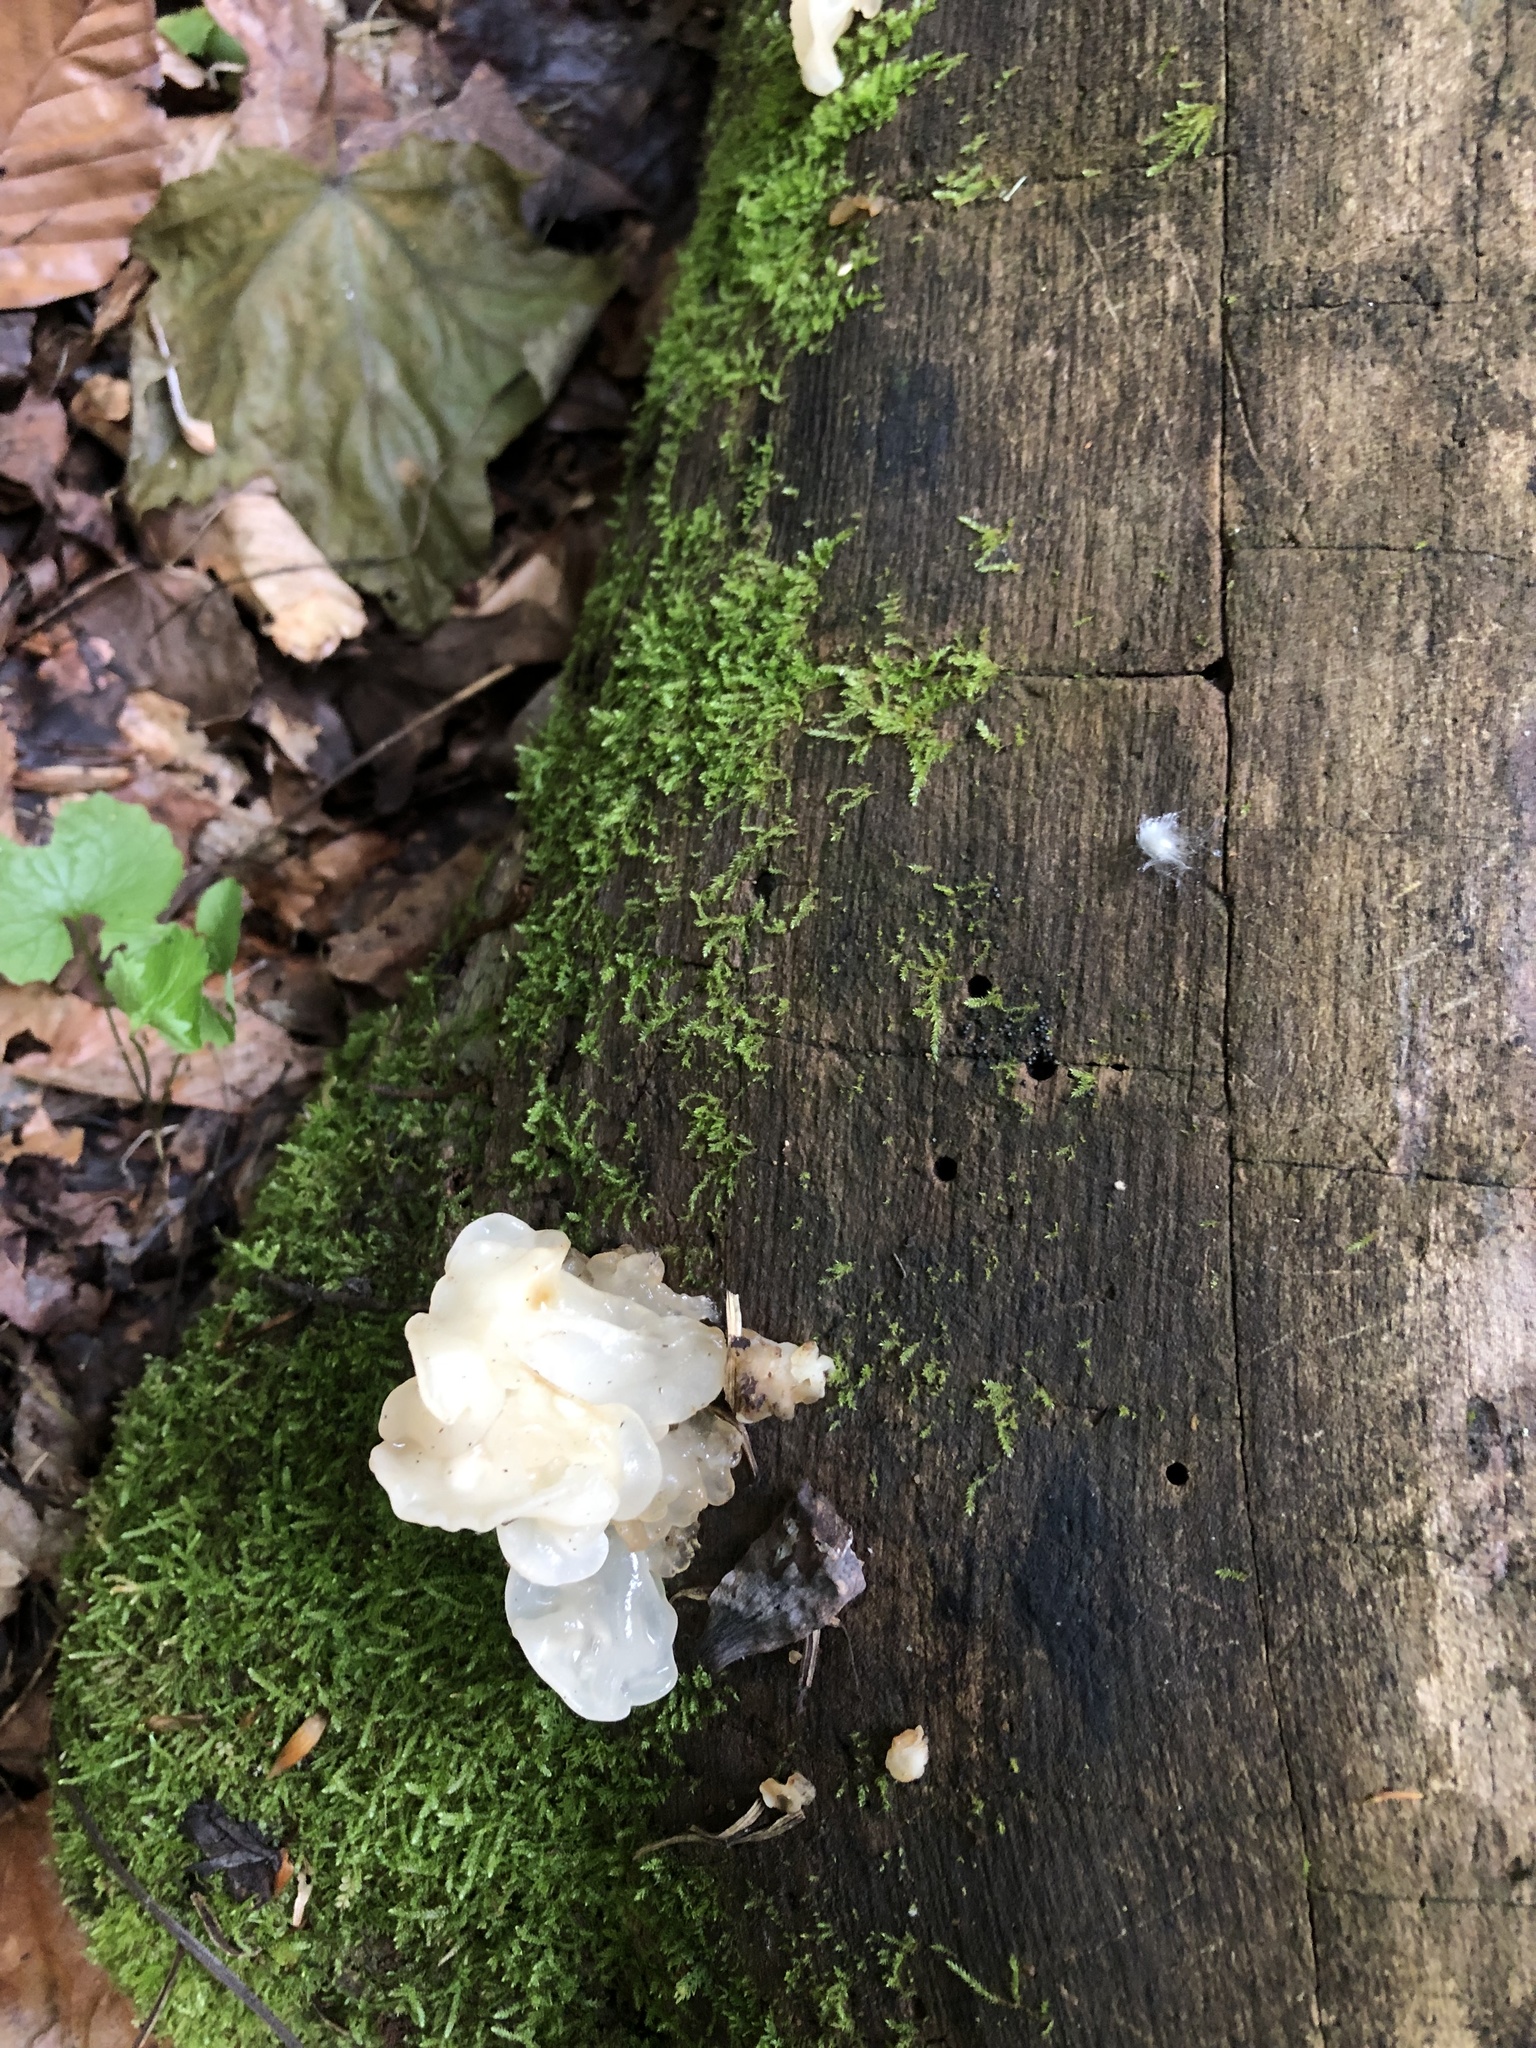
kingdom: Fungi
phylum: Basidiomycota
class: Agaricomycetes
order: Auriculariales
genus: Ductifera
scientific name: Ductifera pululahuana
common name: White jelly fungus
